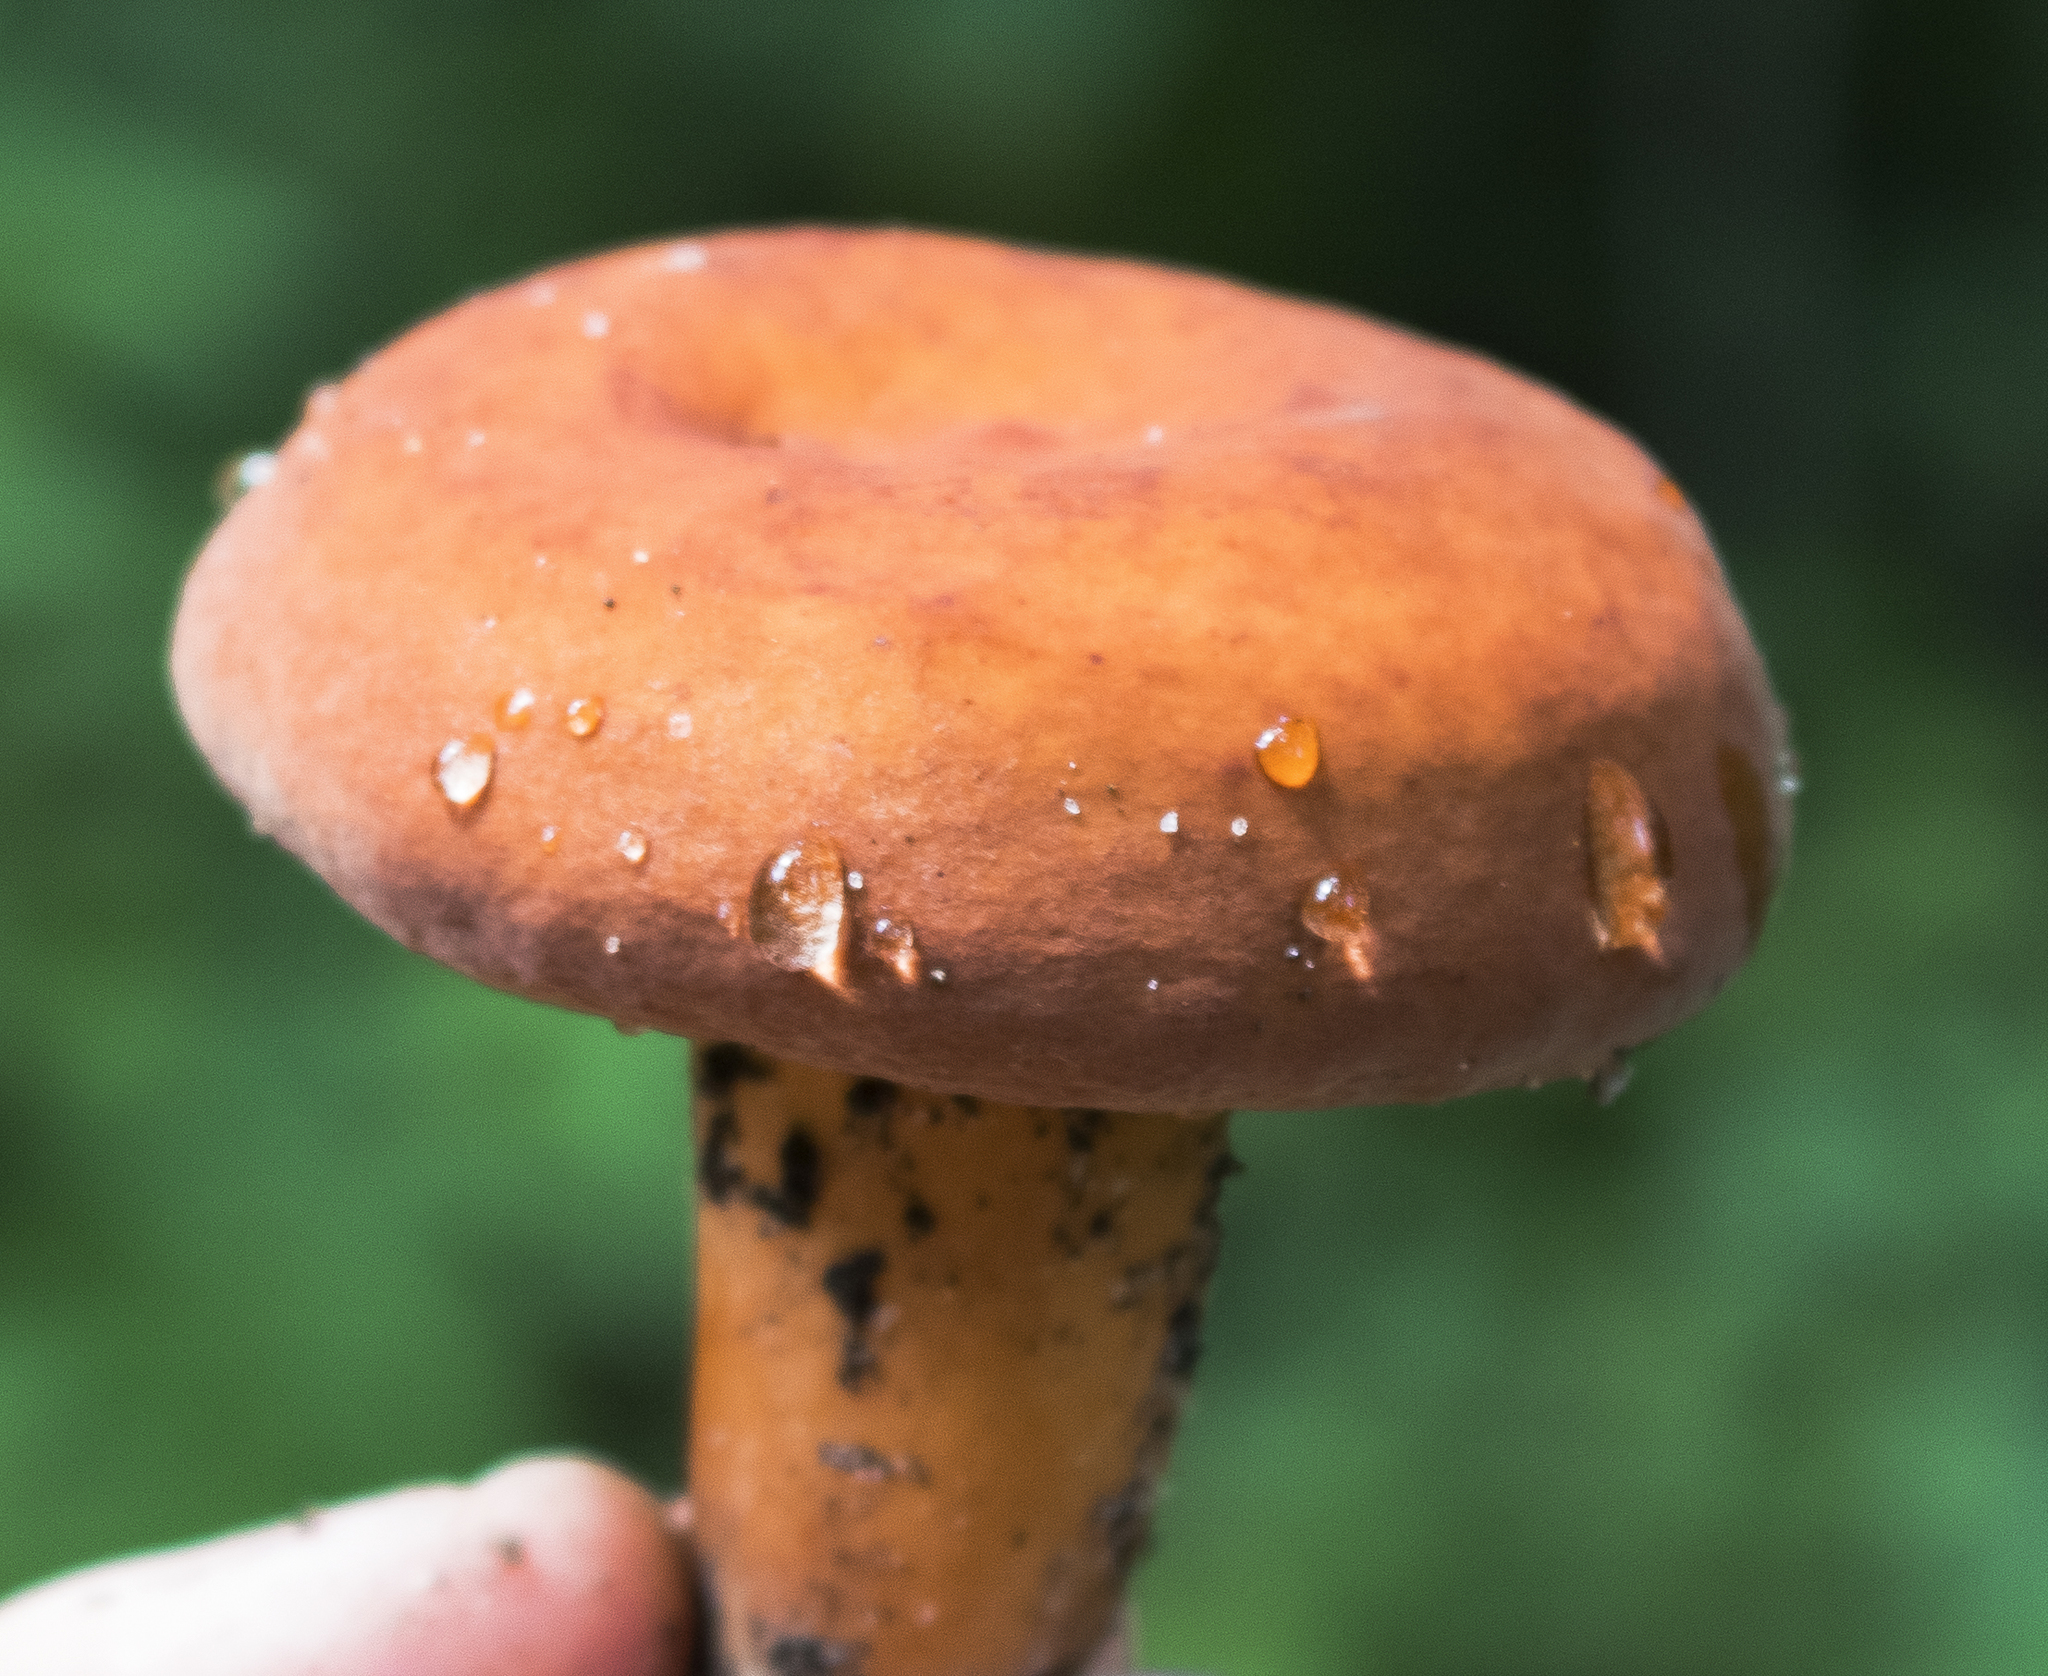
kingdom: Fungi
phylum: Basidiomycota
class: Agaricomycetes
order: Russulales
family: Russulaceae
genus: Lactifluus
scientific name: Lactifluus volemus
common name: Fishy milkcap
